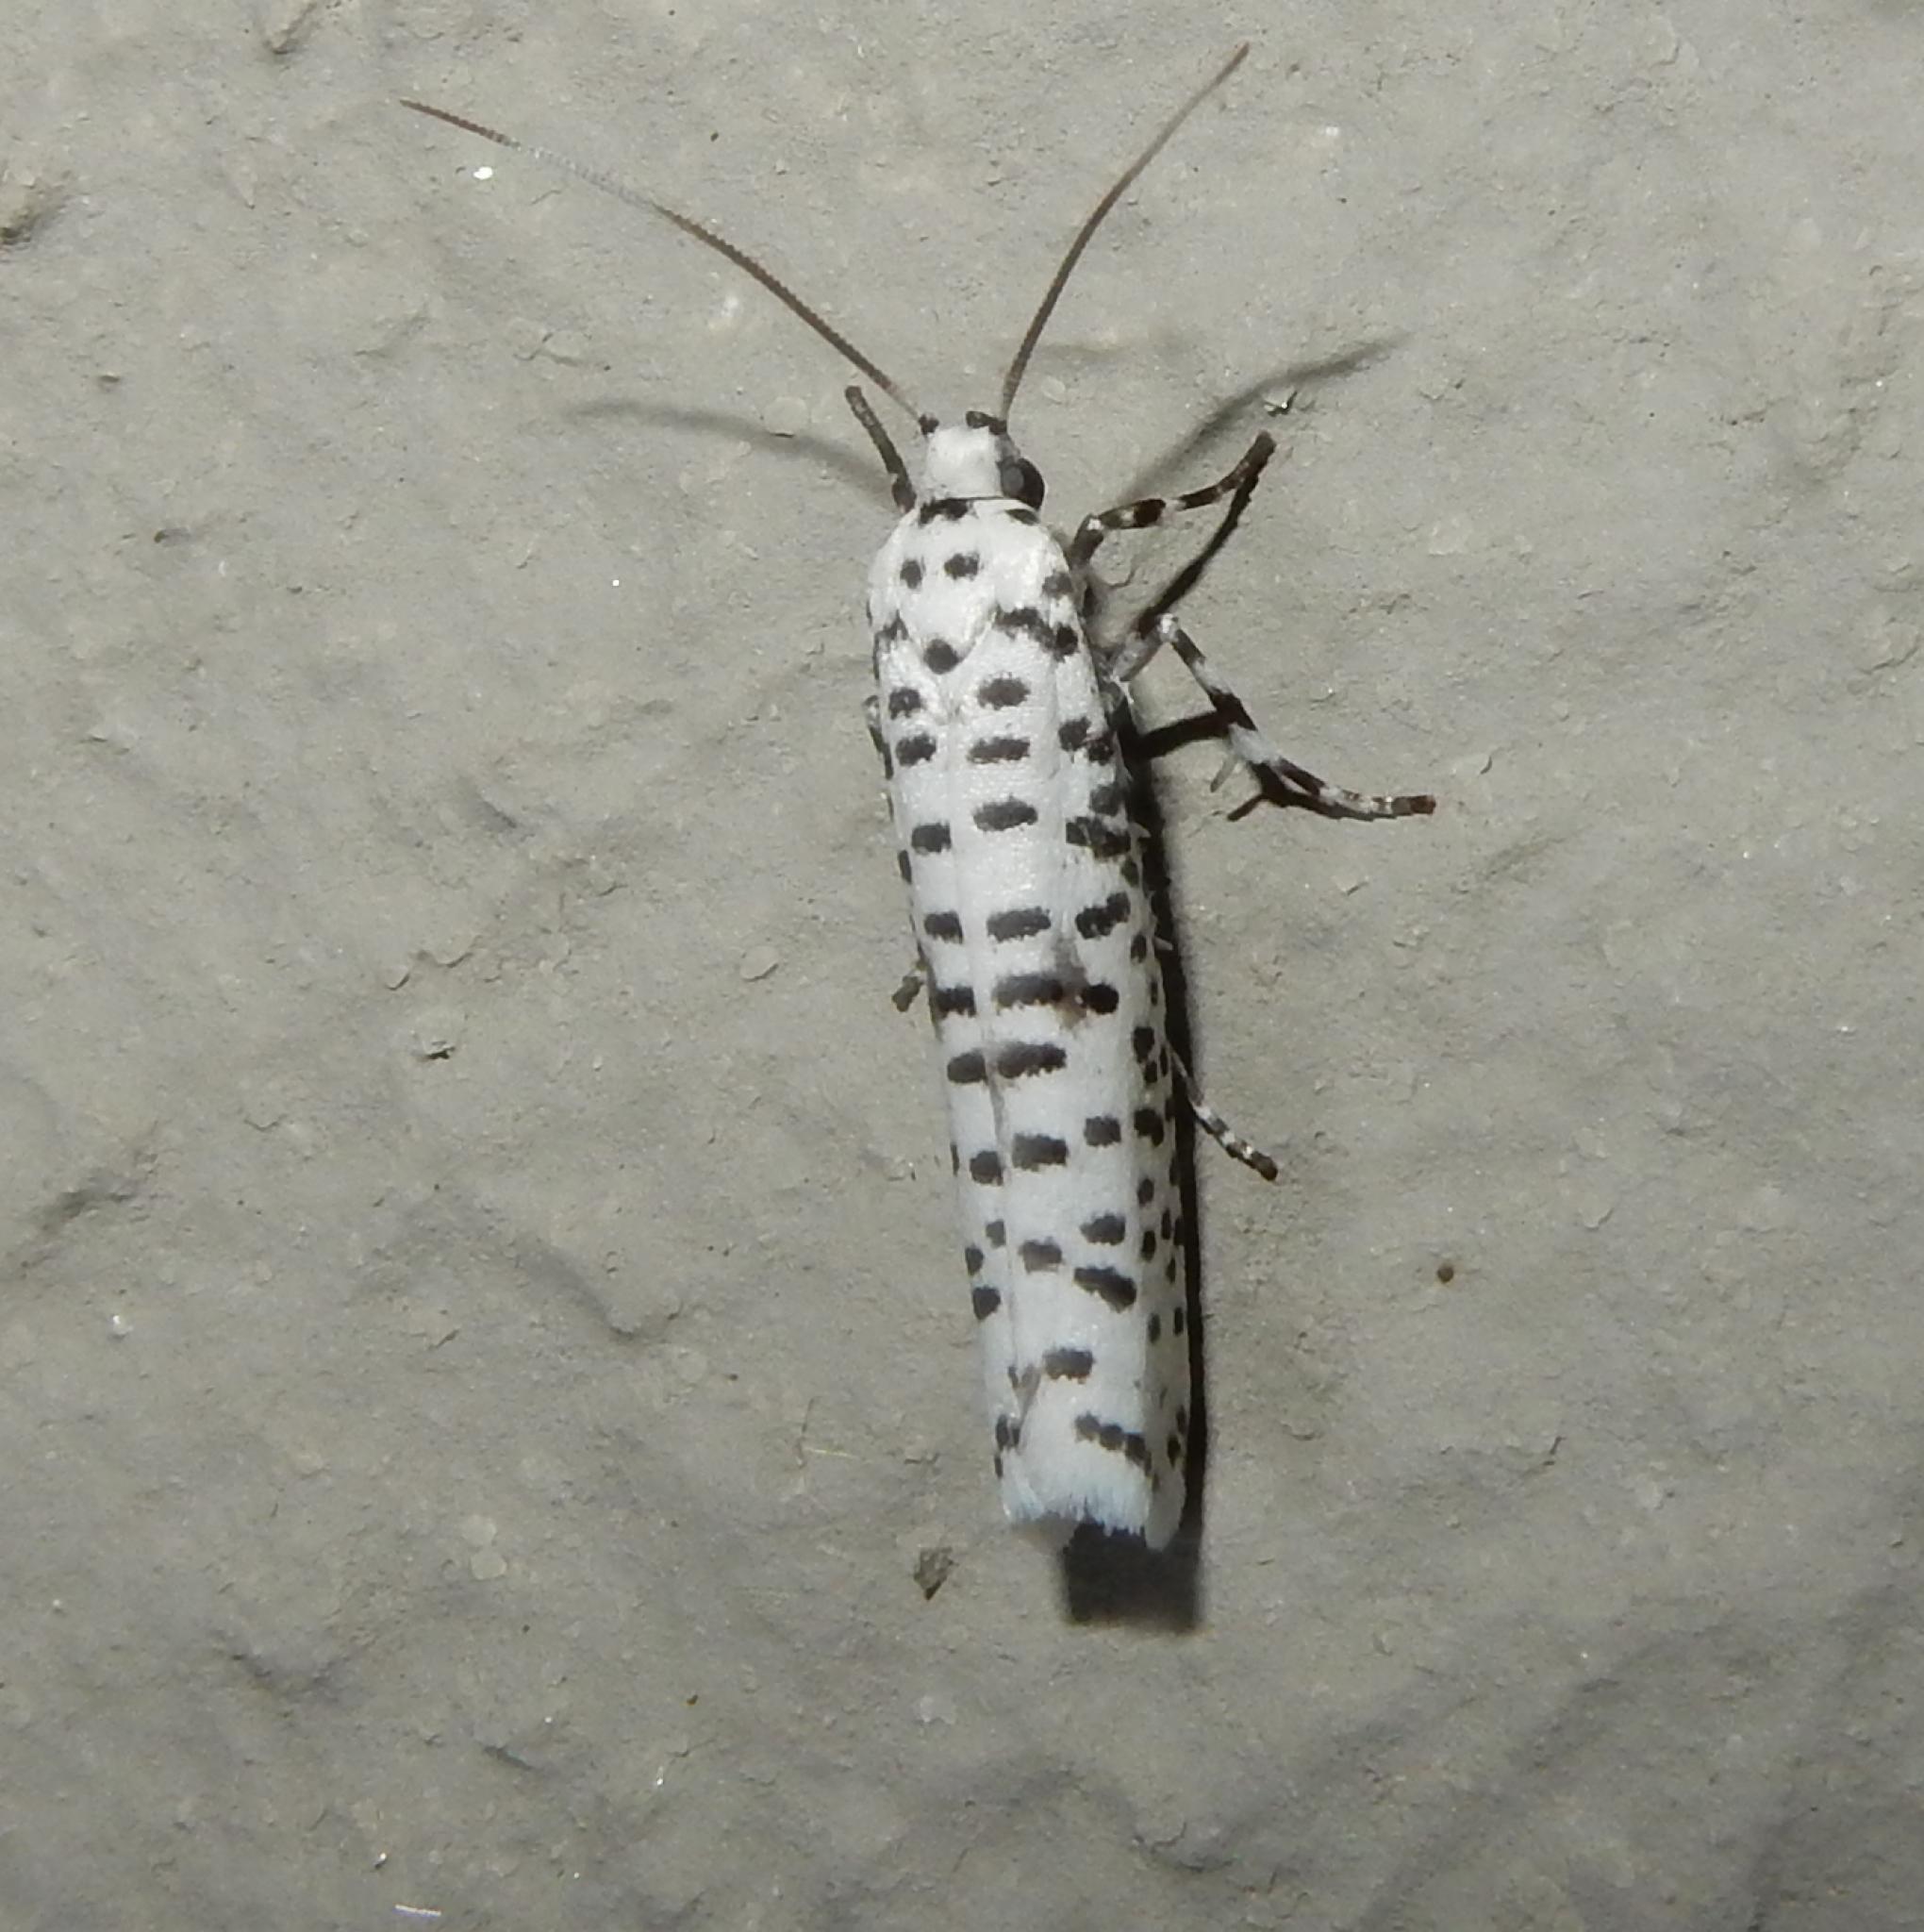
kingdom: Animalia
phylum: Arthropoda
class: Insecta
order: Lepidoptera
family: Yponomeutidae
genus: Yponomeuta
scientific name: Yponomeuta strigillata
